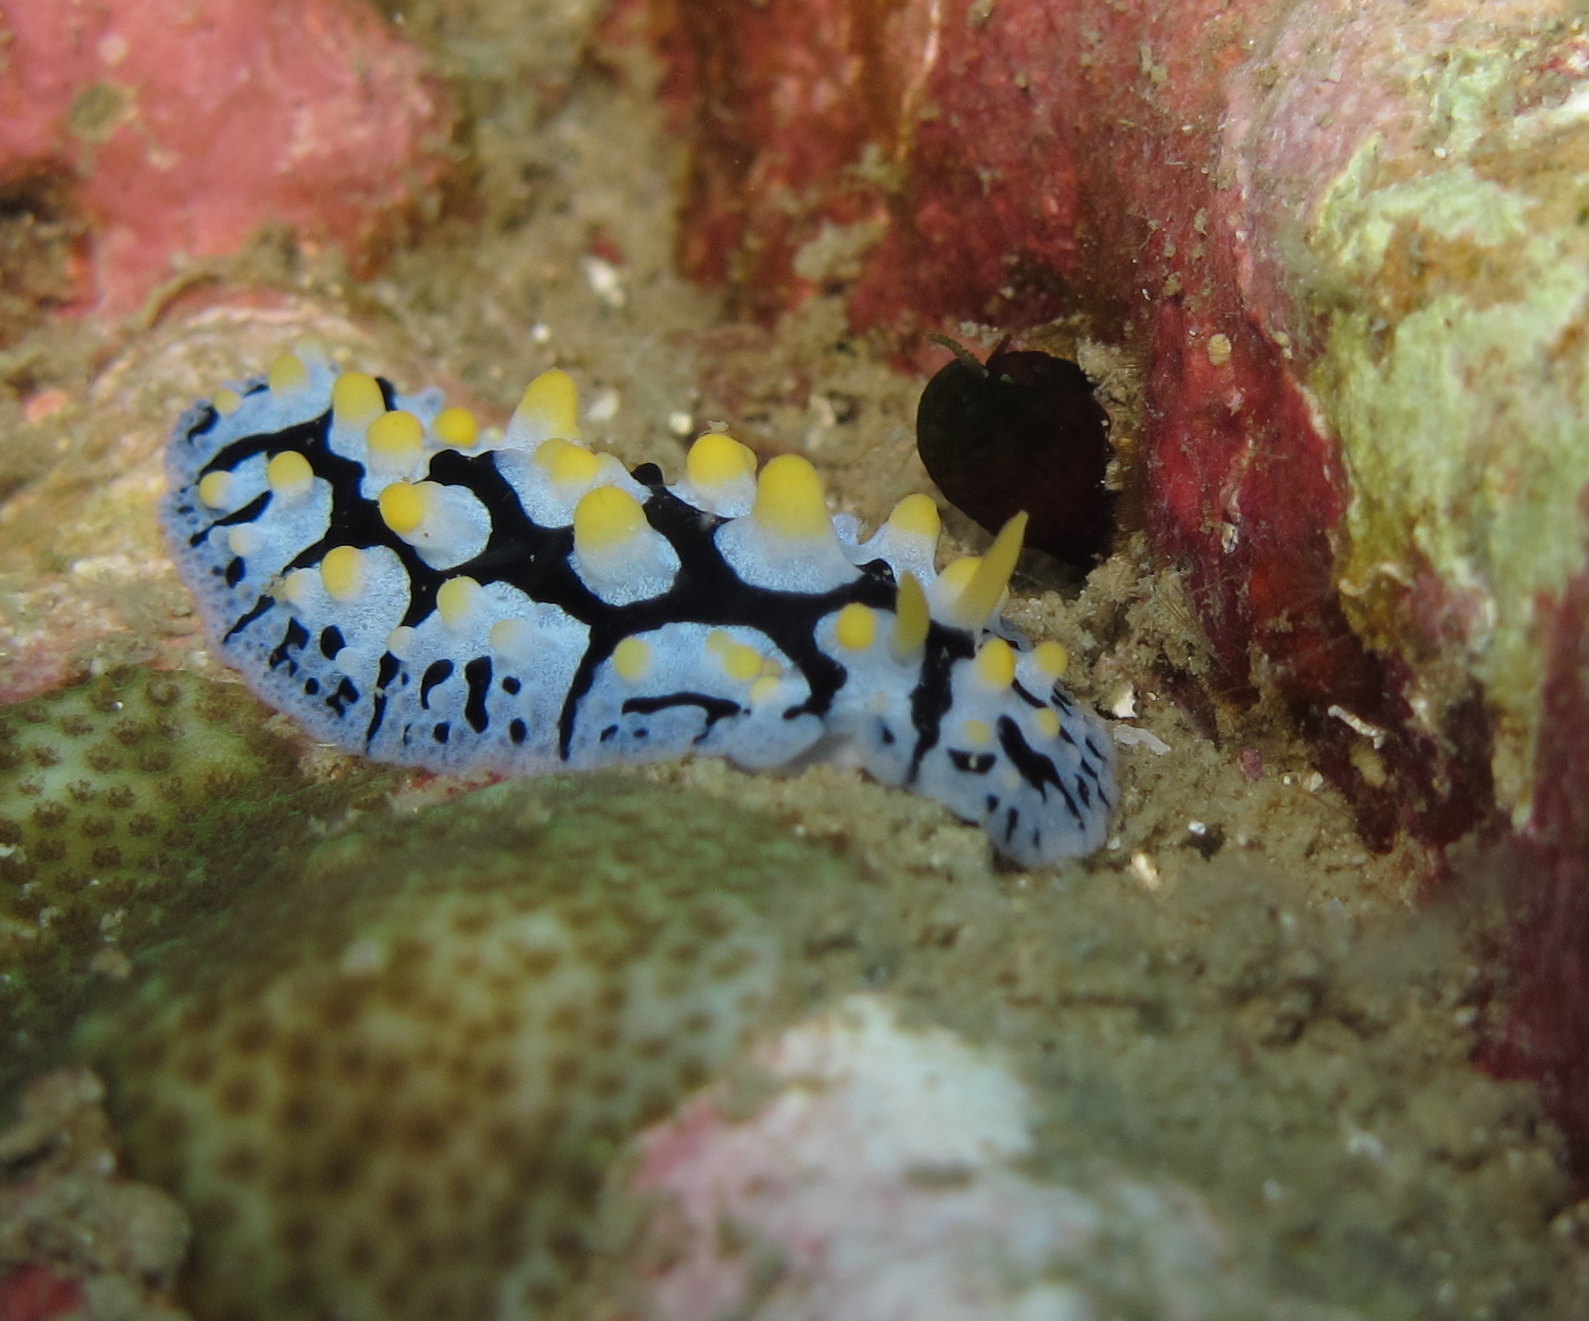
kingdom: Animalia
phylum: Mollusca
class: Gastropoda
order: Nudibranchia
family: Phyllidiidae
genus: Phyllidia
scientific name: Phyllidia picta
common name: Black-rayed phyllidia
